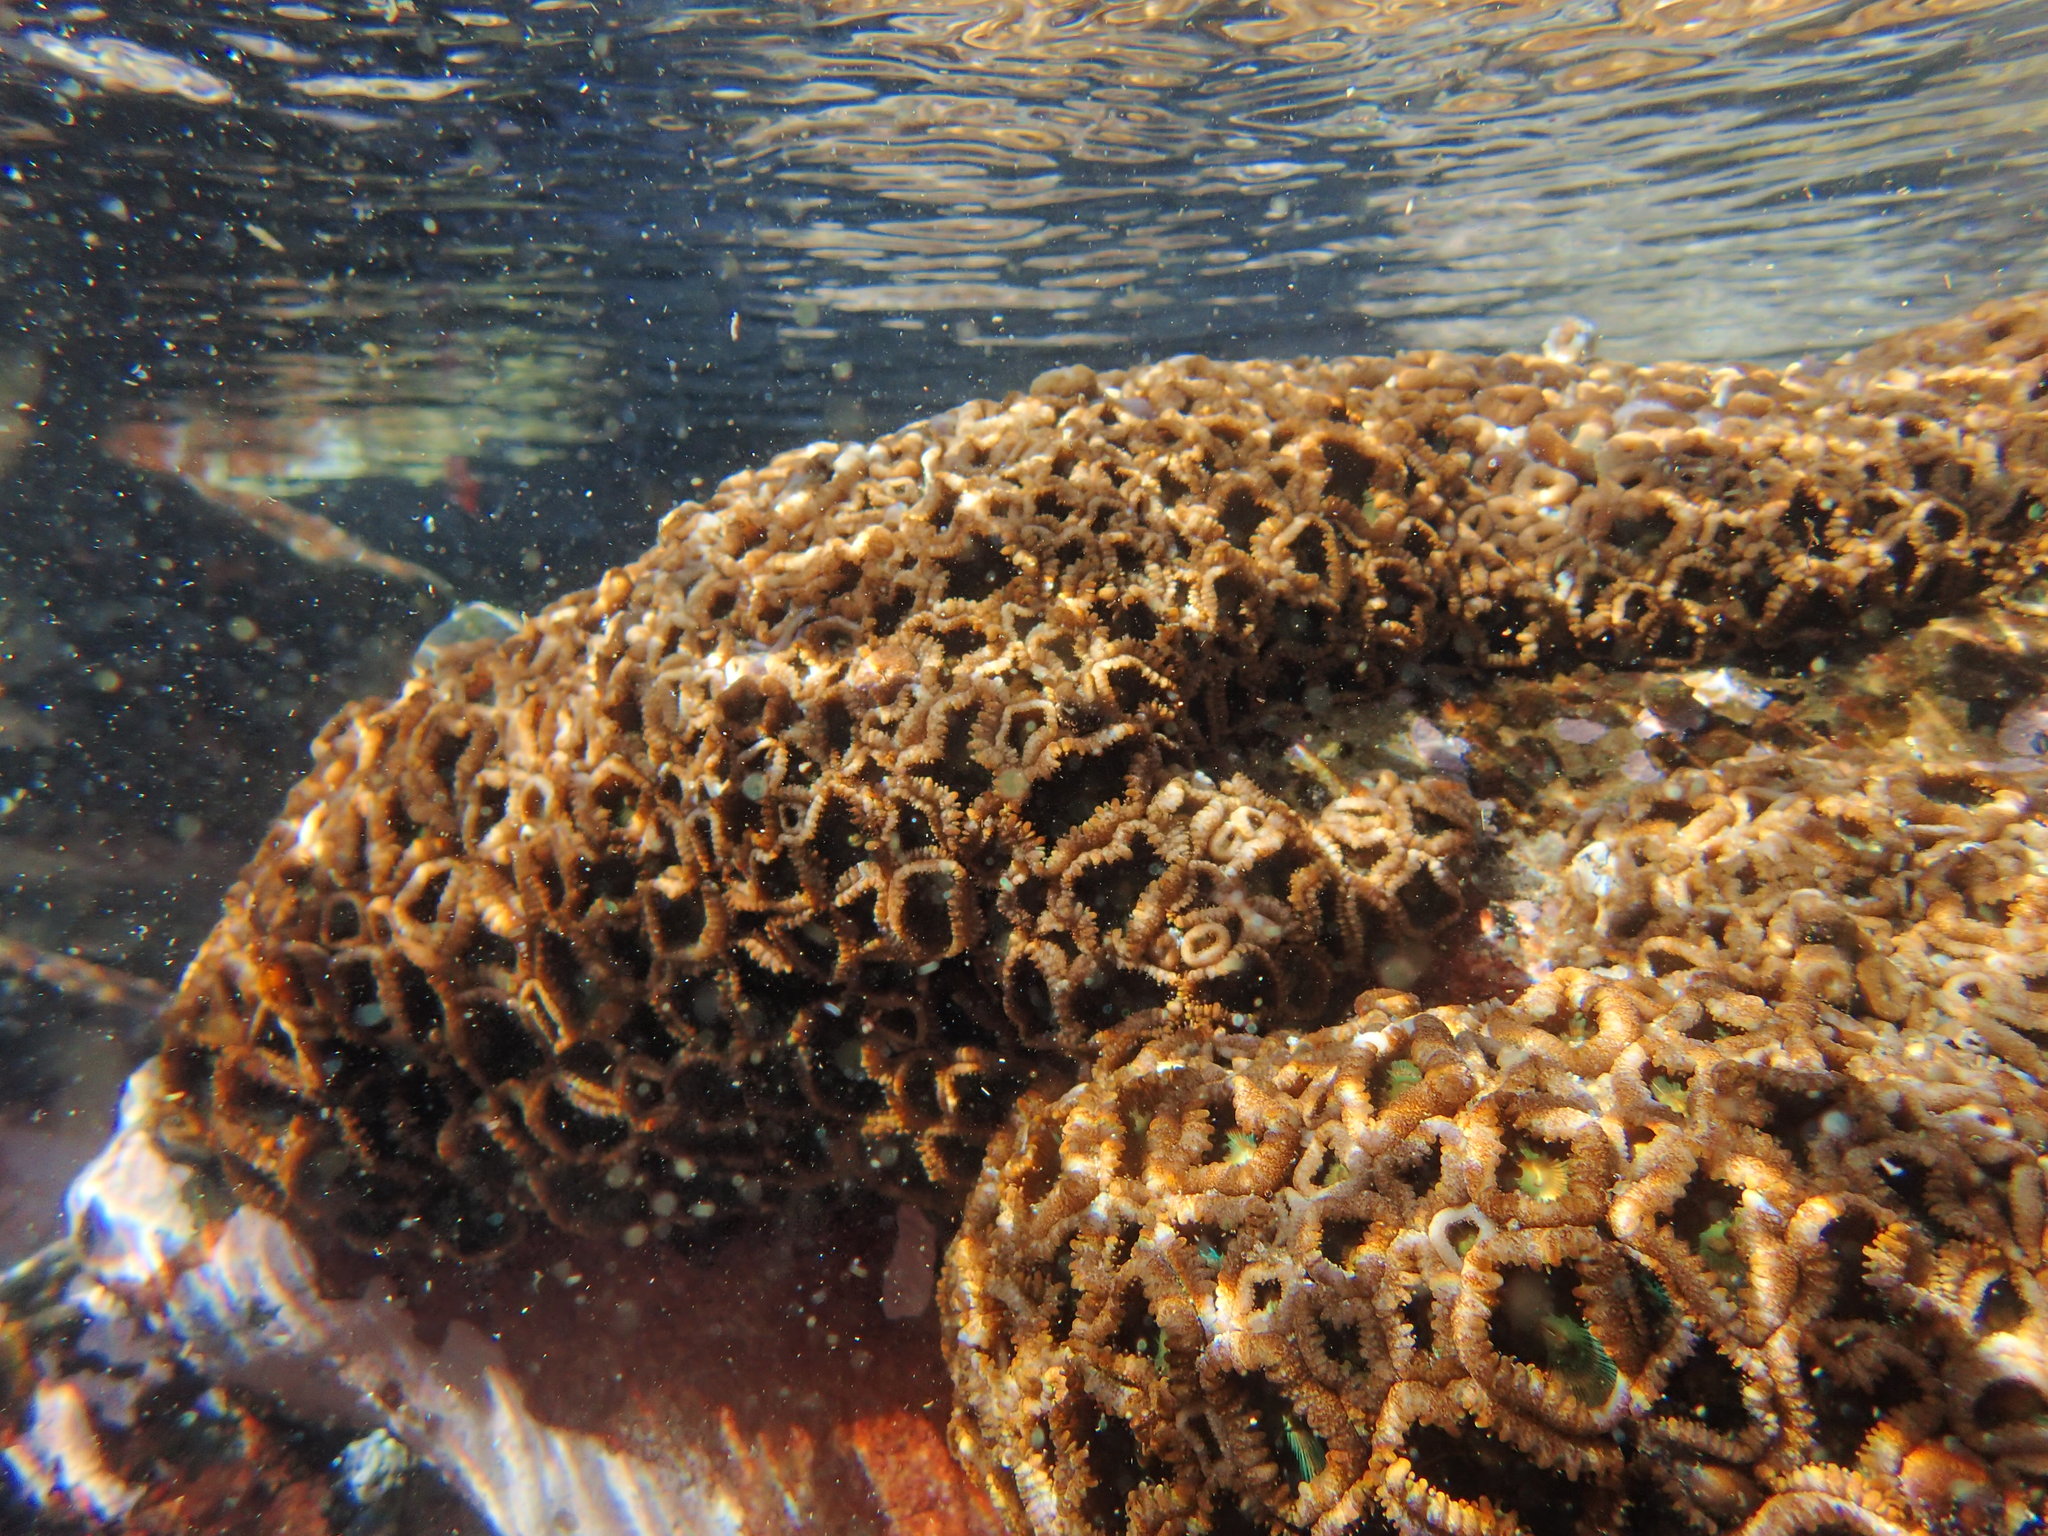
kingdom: Animalia
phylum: Cnidaria
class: Anthozoa
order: Zoantharia
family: Sphenopidae
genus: Palythoa
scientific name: Palythoa mutuki
